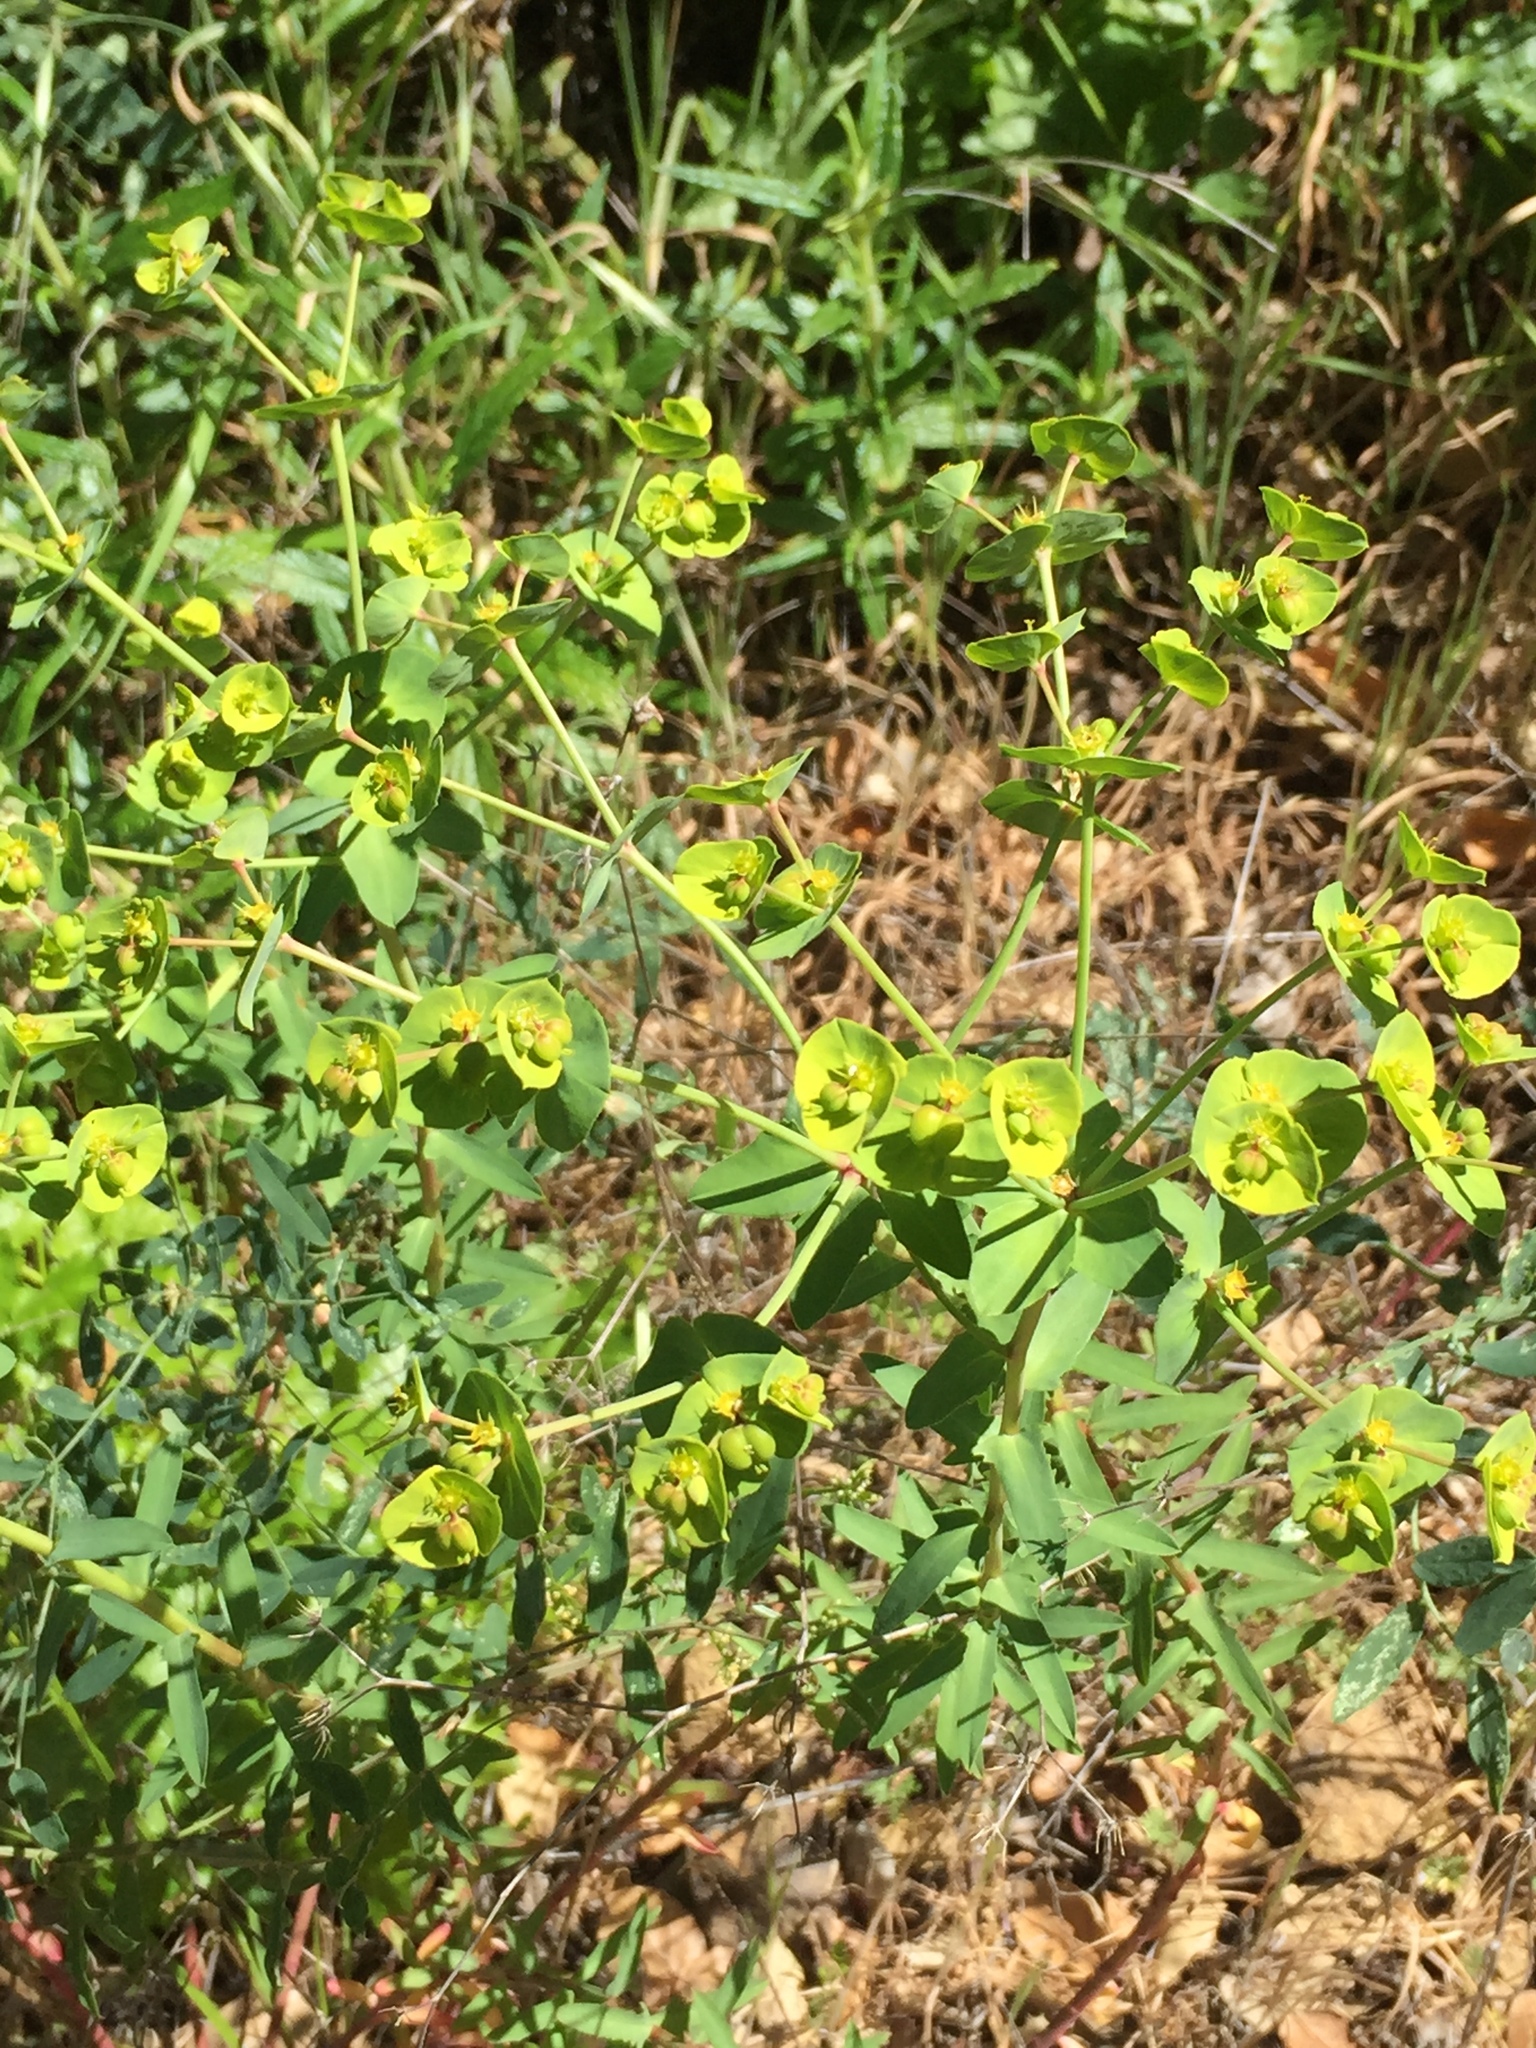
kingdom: Plantae
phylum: Tracheophyta
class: Magnoliopsida
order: Malpighiales
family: Euphorbiaceae
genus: Euphorbia
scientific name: Euphorbia terracina
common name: Geraldton carnation weed
